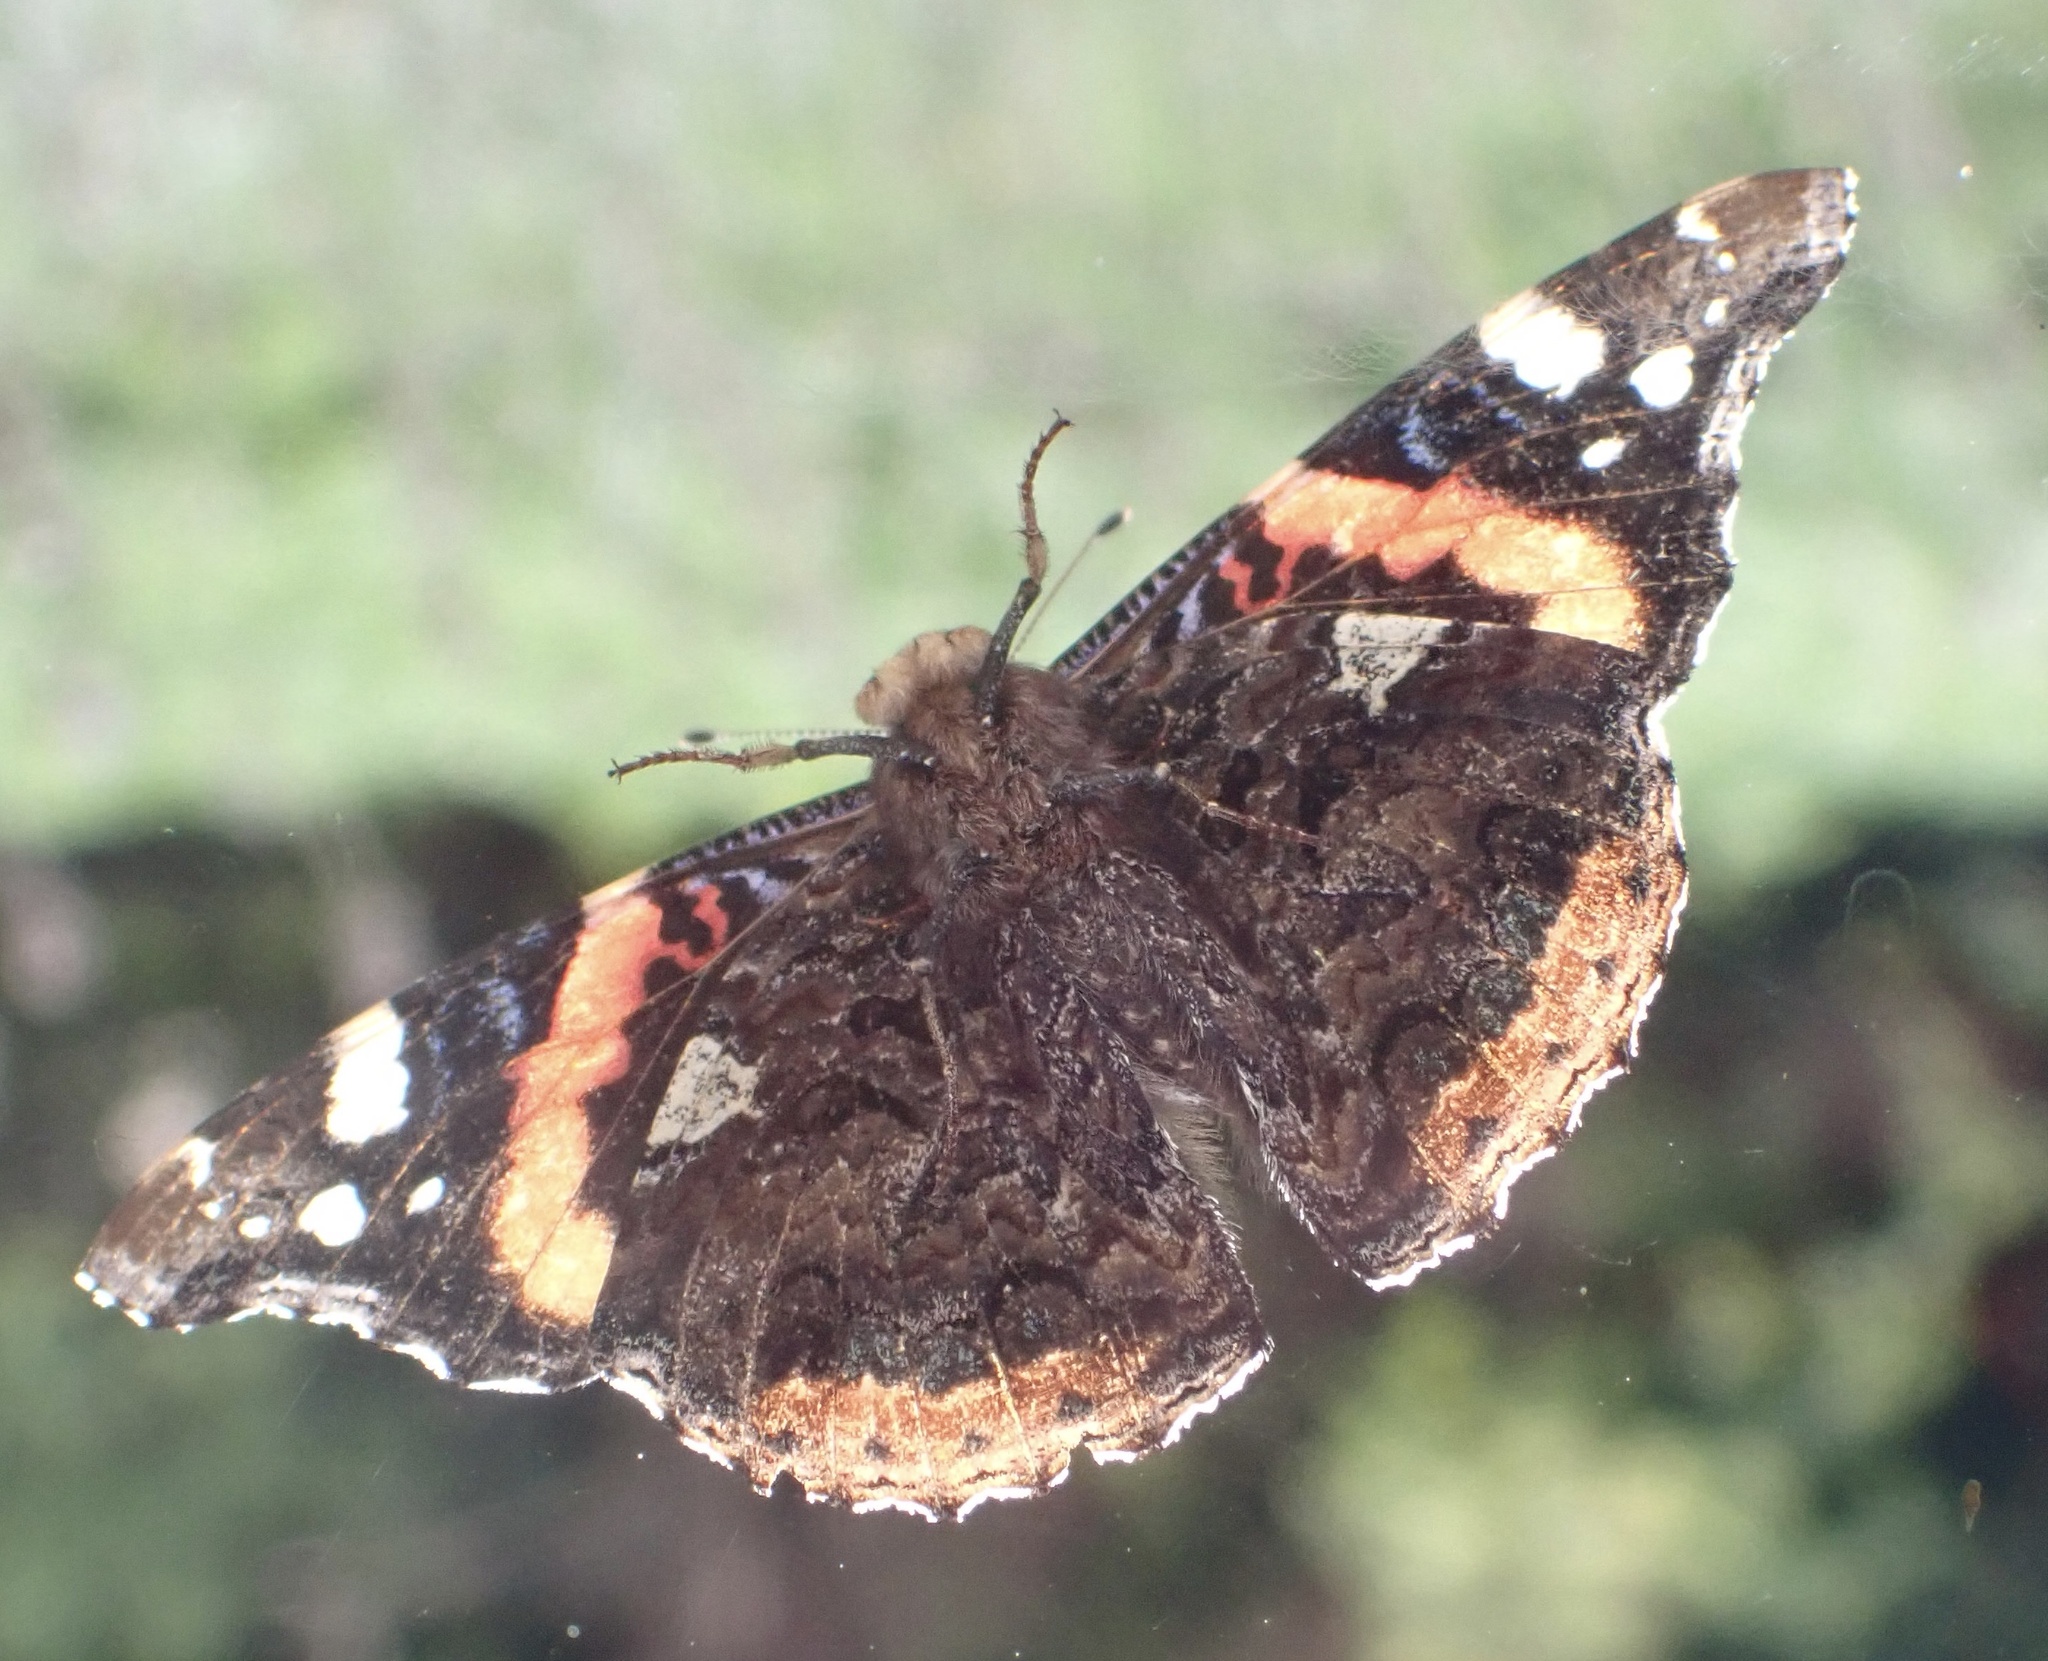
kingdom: Animalia
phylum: Arthropoda
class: Insecta
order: Lepidoptera
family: Nymphalidae
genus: Vanessa
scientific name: Vanessa atalanta
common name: Red admiral
